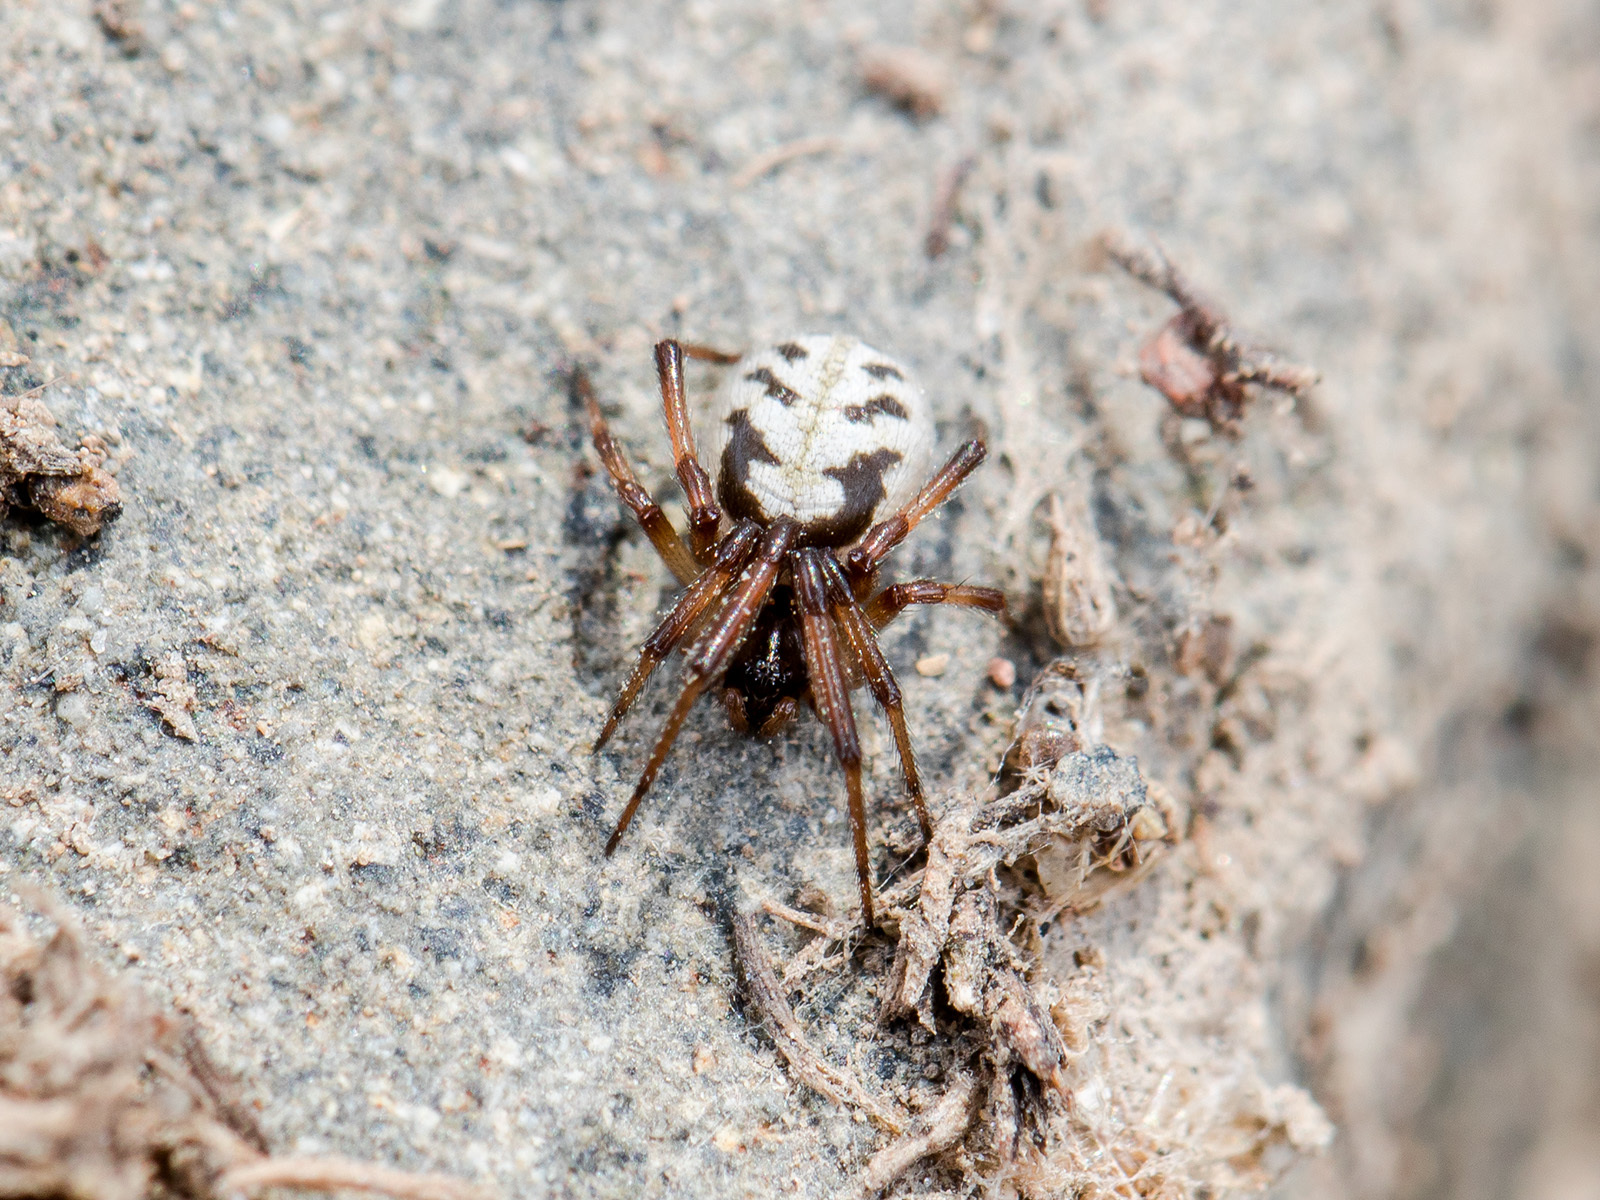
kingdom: Animalia
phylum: Arthropoda
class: Arachnida
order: Araneae
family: Theridiidae
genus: Steatoda
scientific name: Steatoda albomaculata
